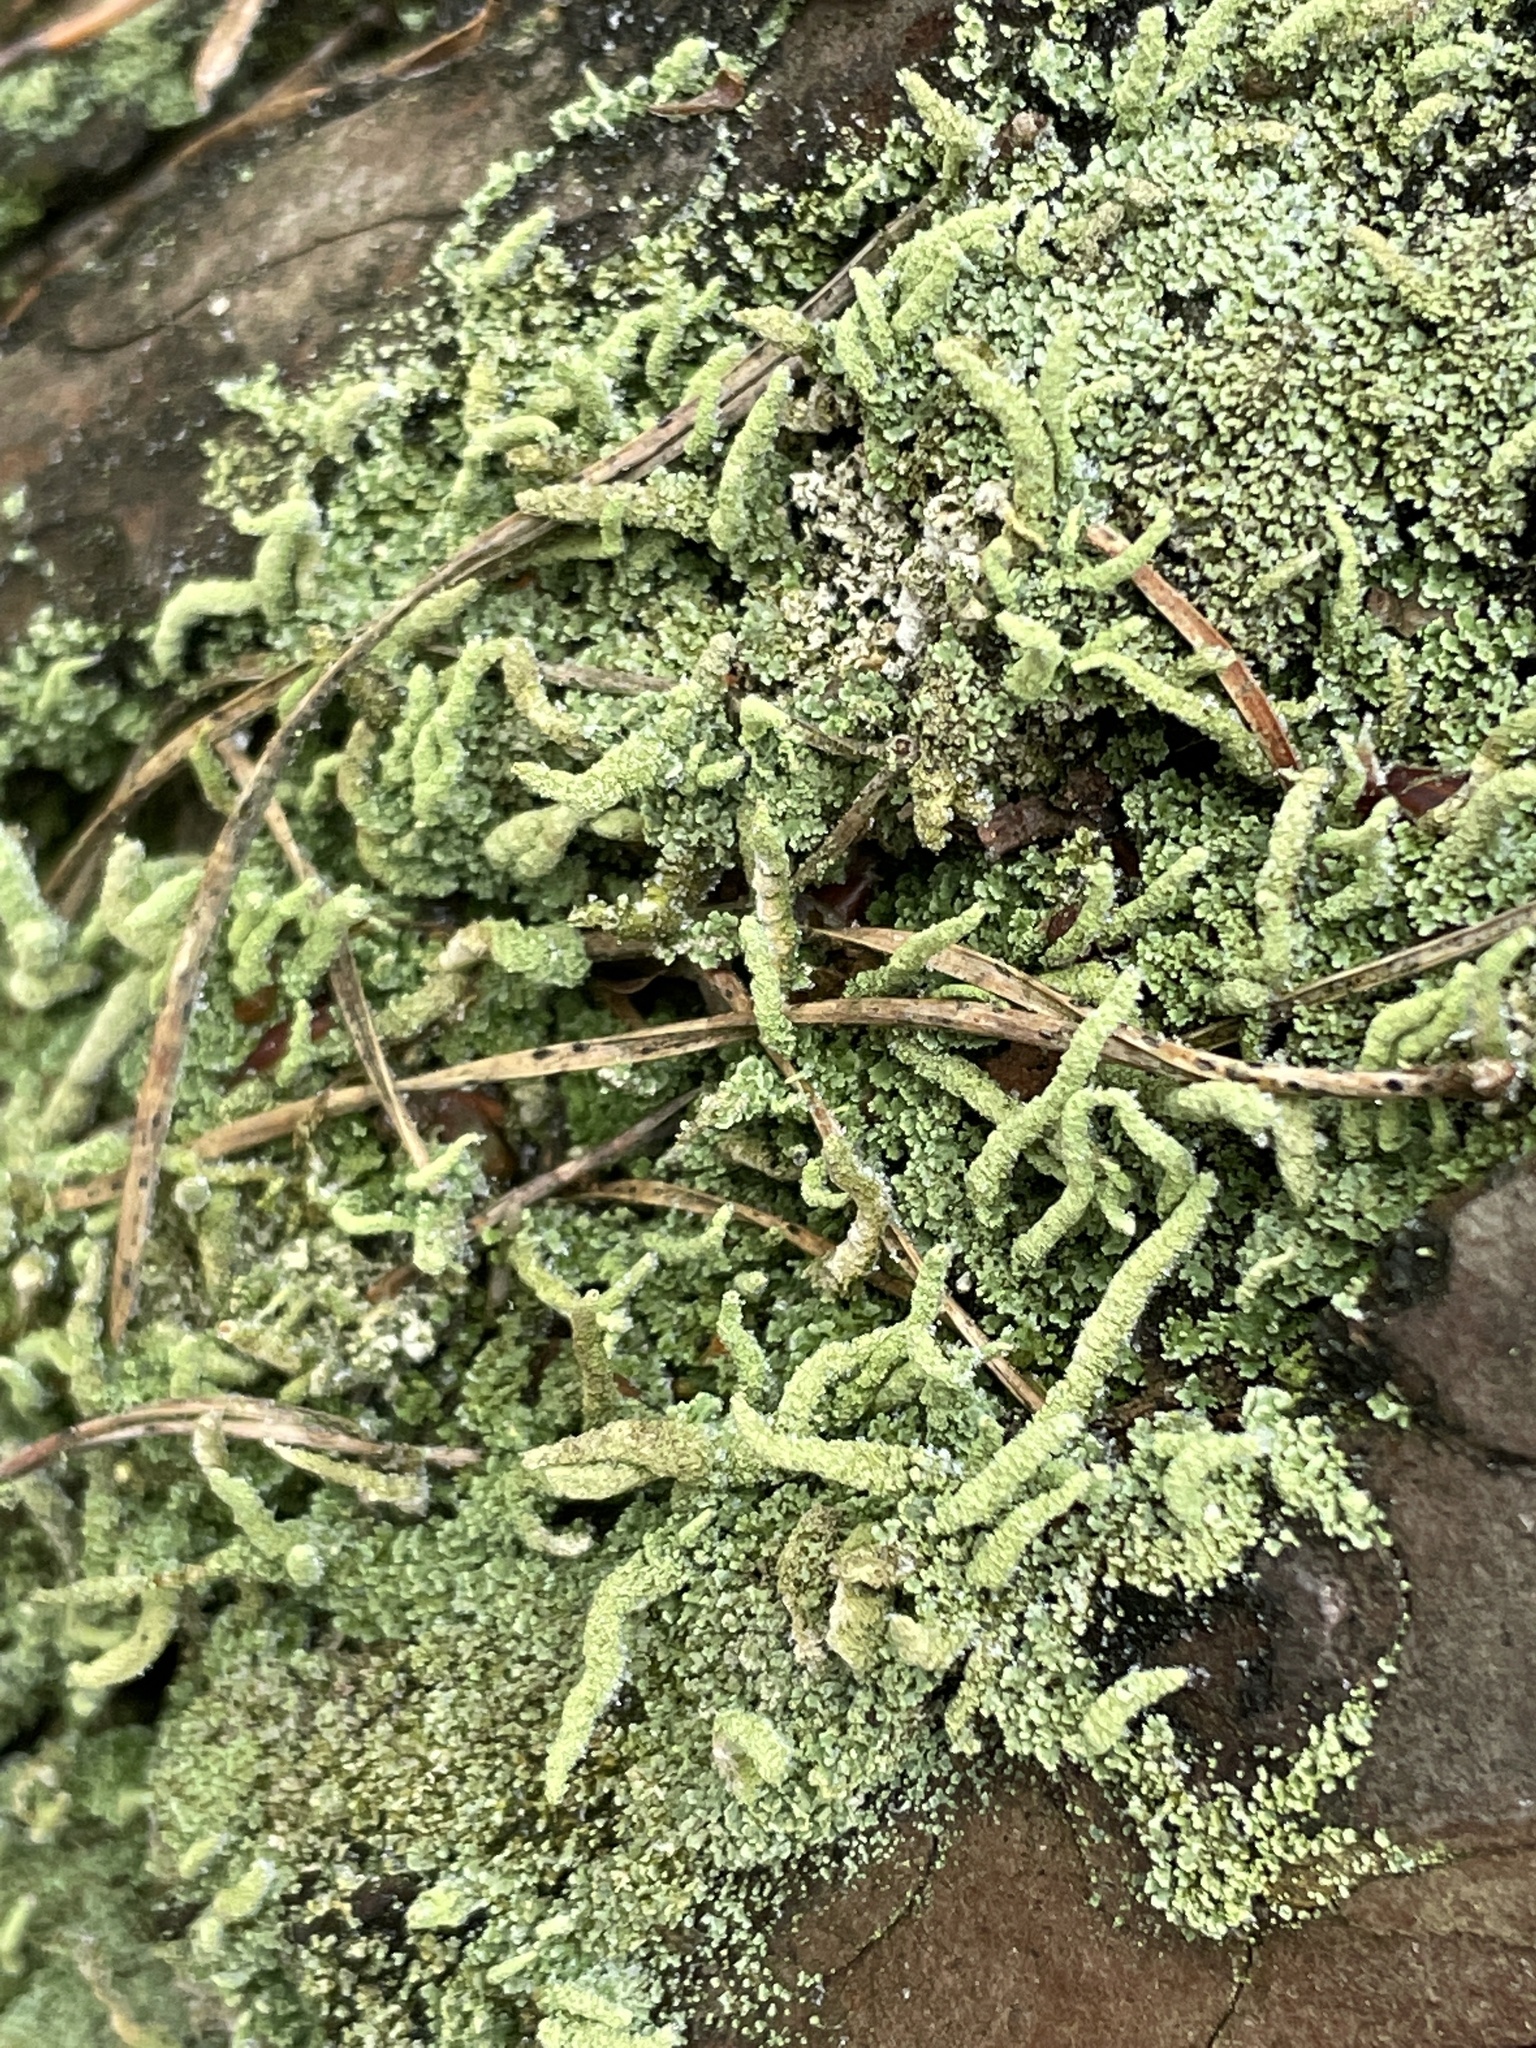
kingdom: Fungi
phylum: Ascomycota
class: Lecanoromycetes
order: Lecanorales
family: Cladoniaceae
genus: Cladonia
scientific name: Cladonia coniocraea
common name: Common powderhorn
